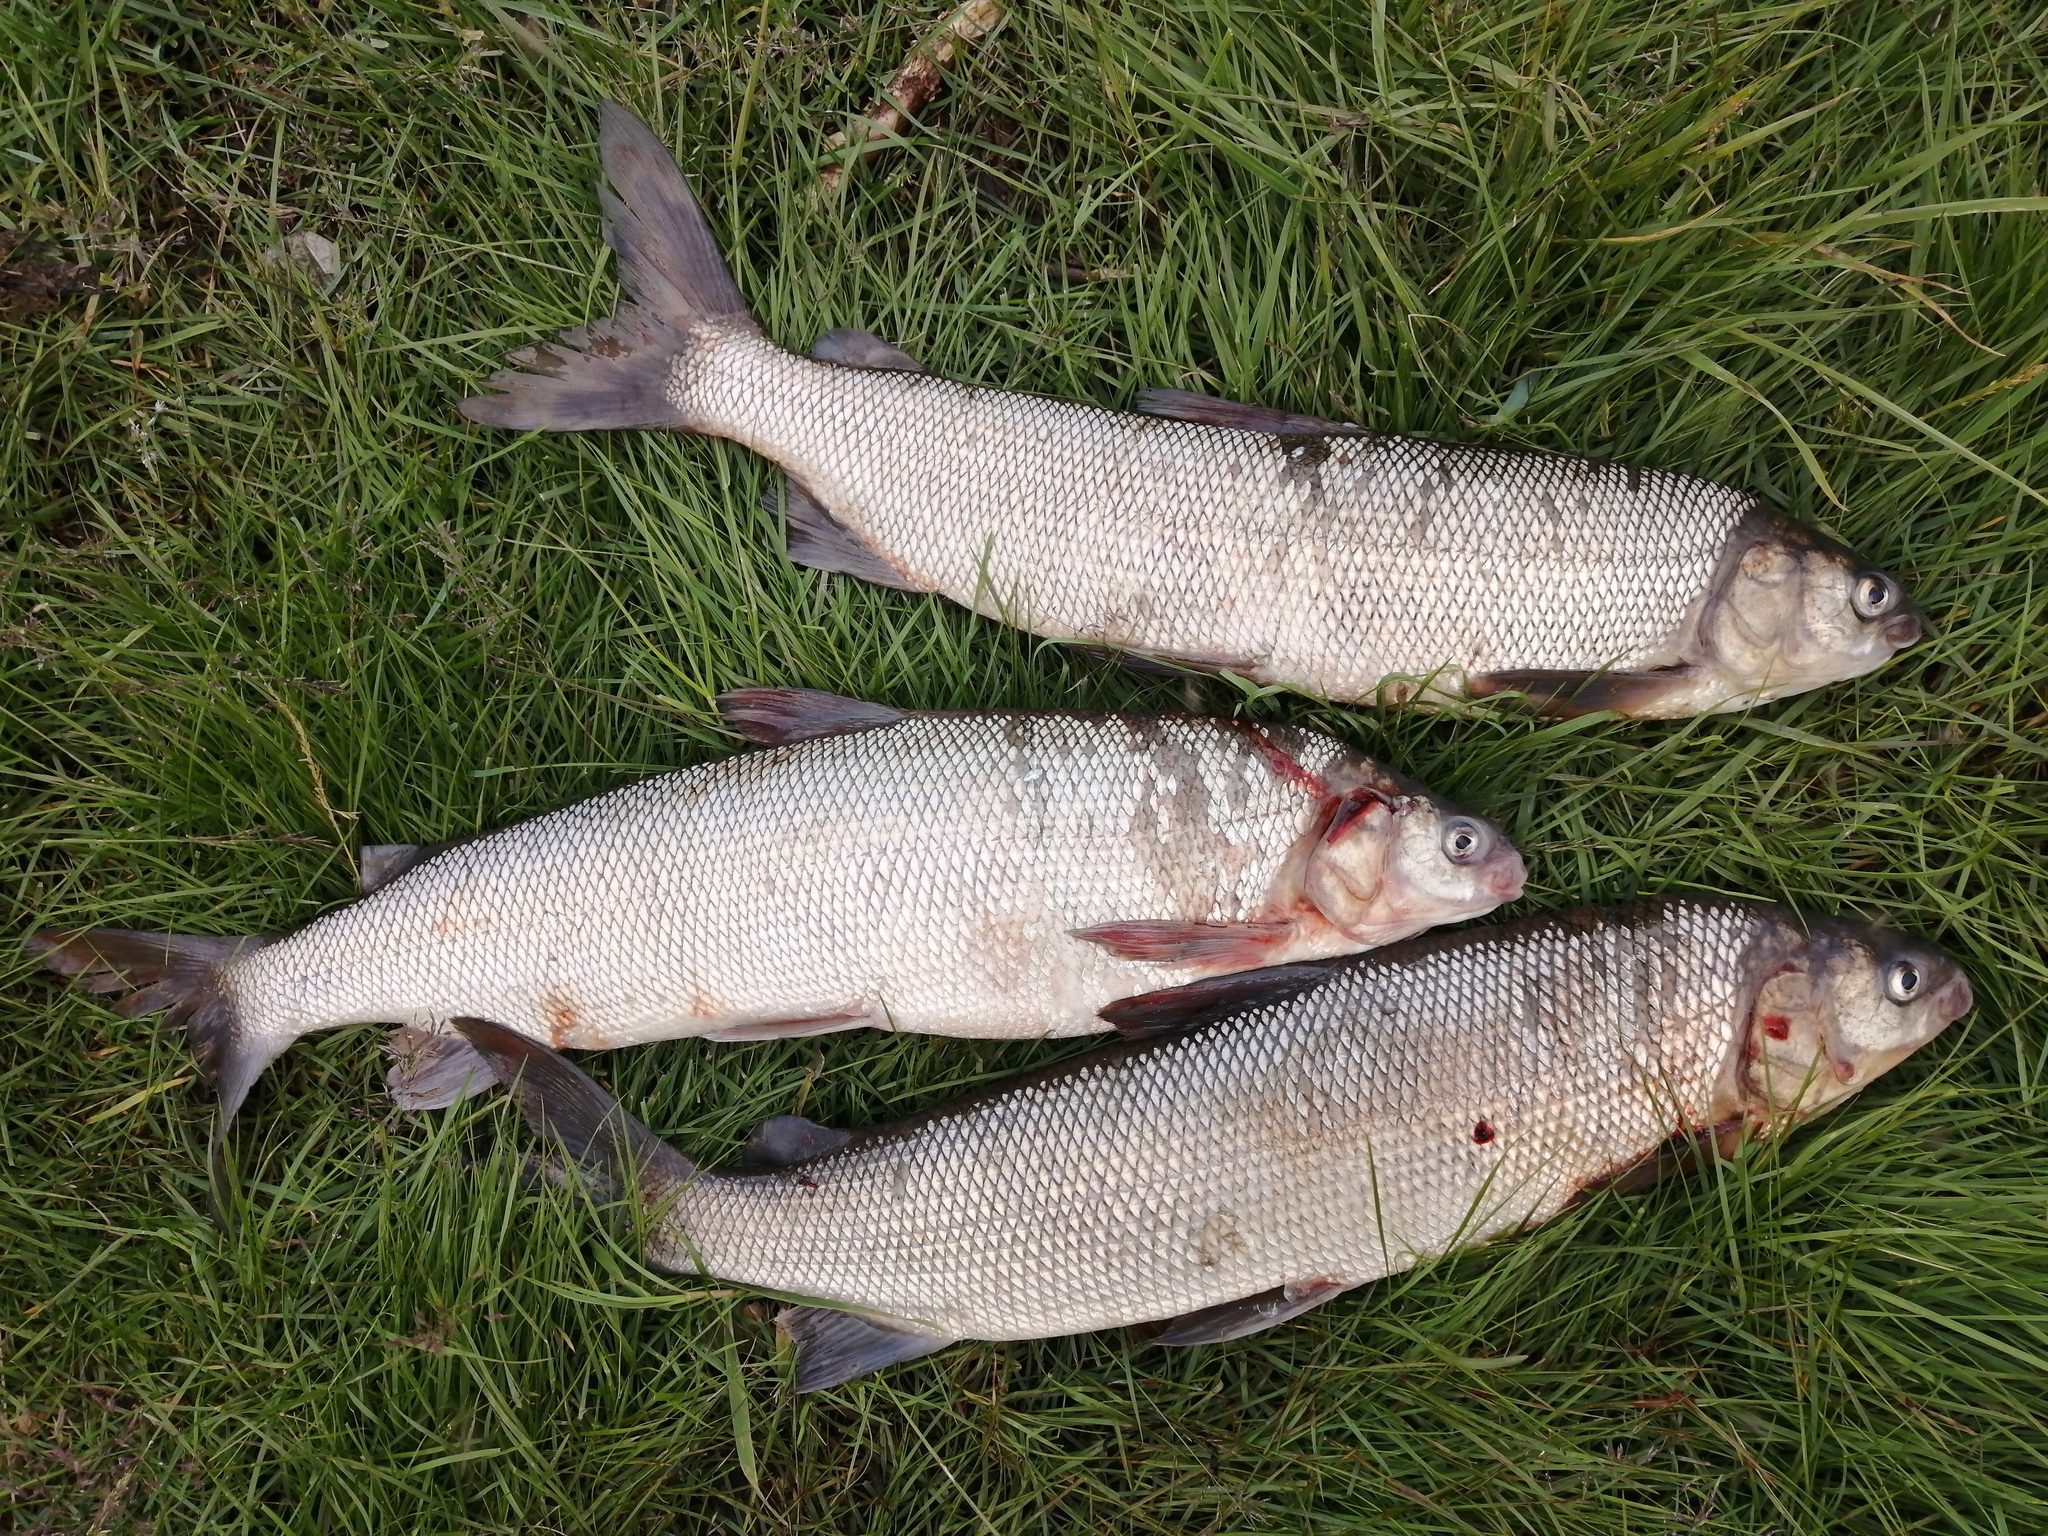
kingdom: Animalia
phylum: Chordata
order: Salmoniformes
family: Salmonidae
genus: Coregonus
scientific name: Coregonus nasus
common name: Broad whitefish
